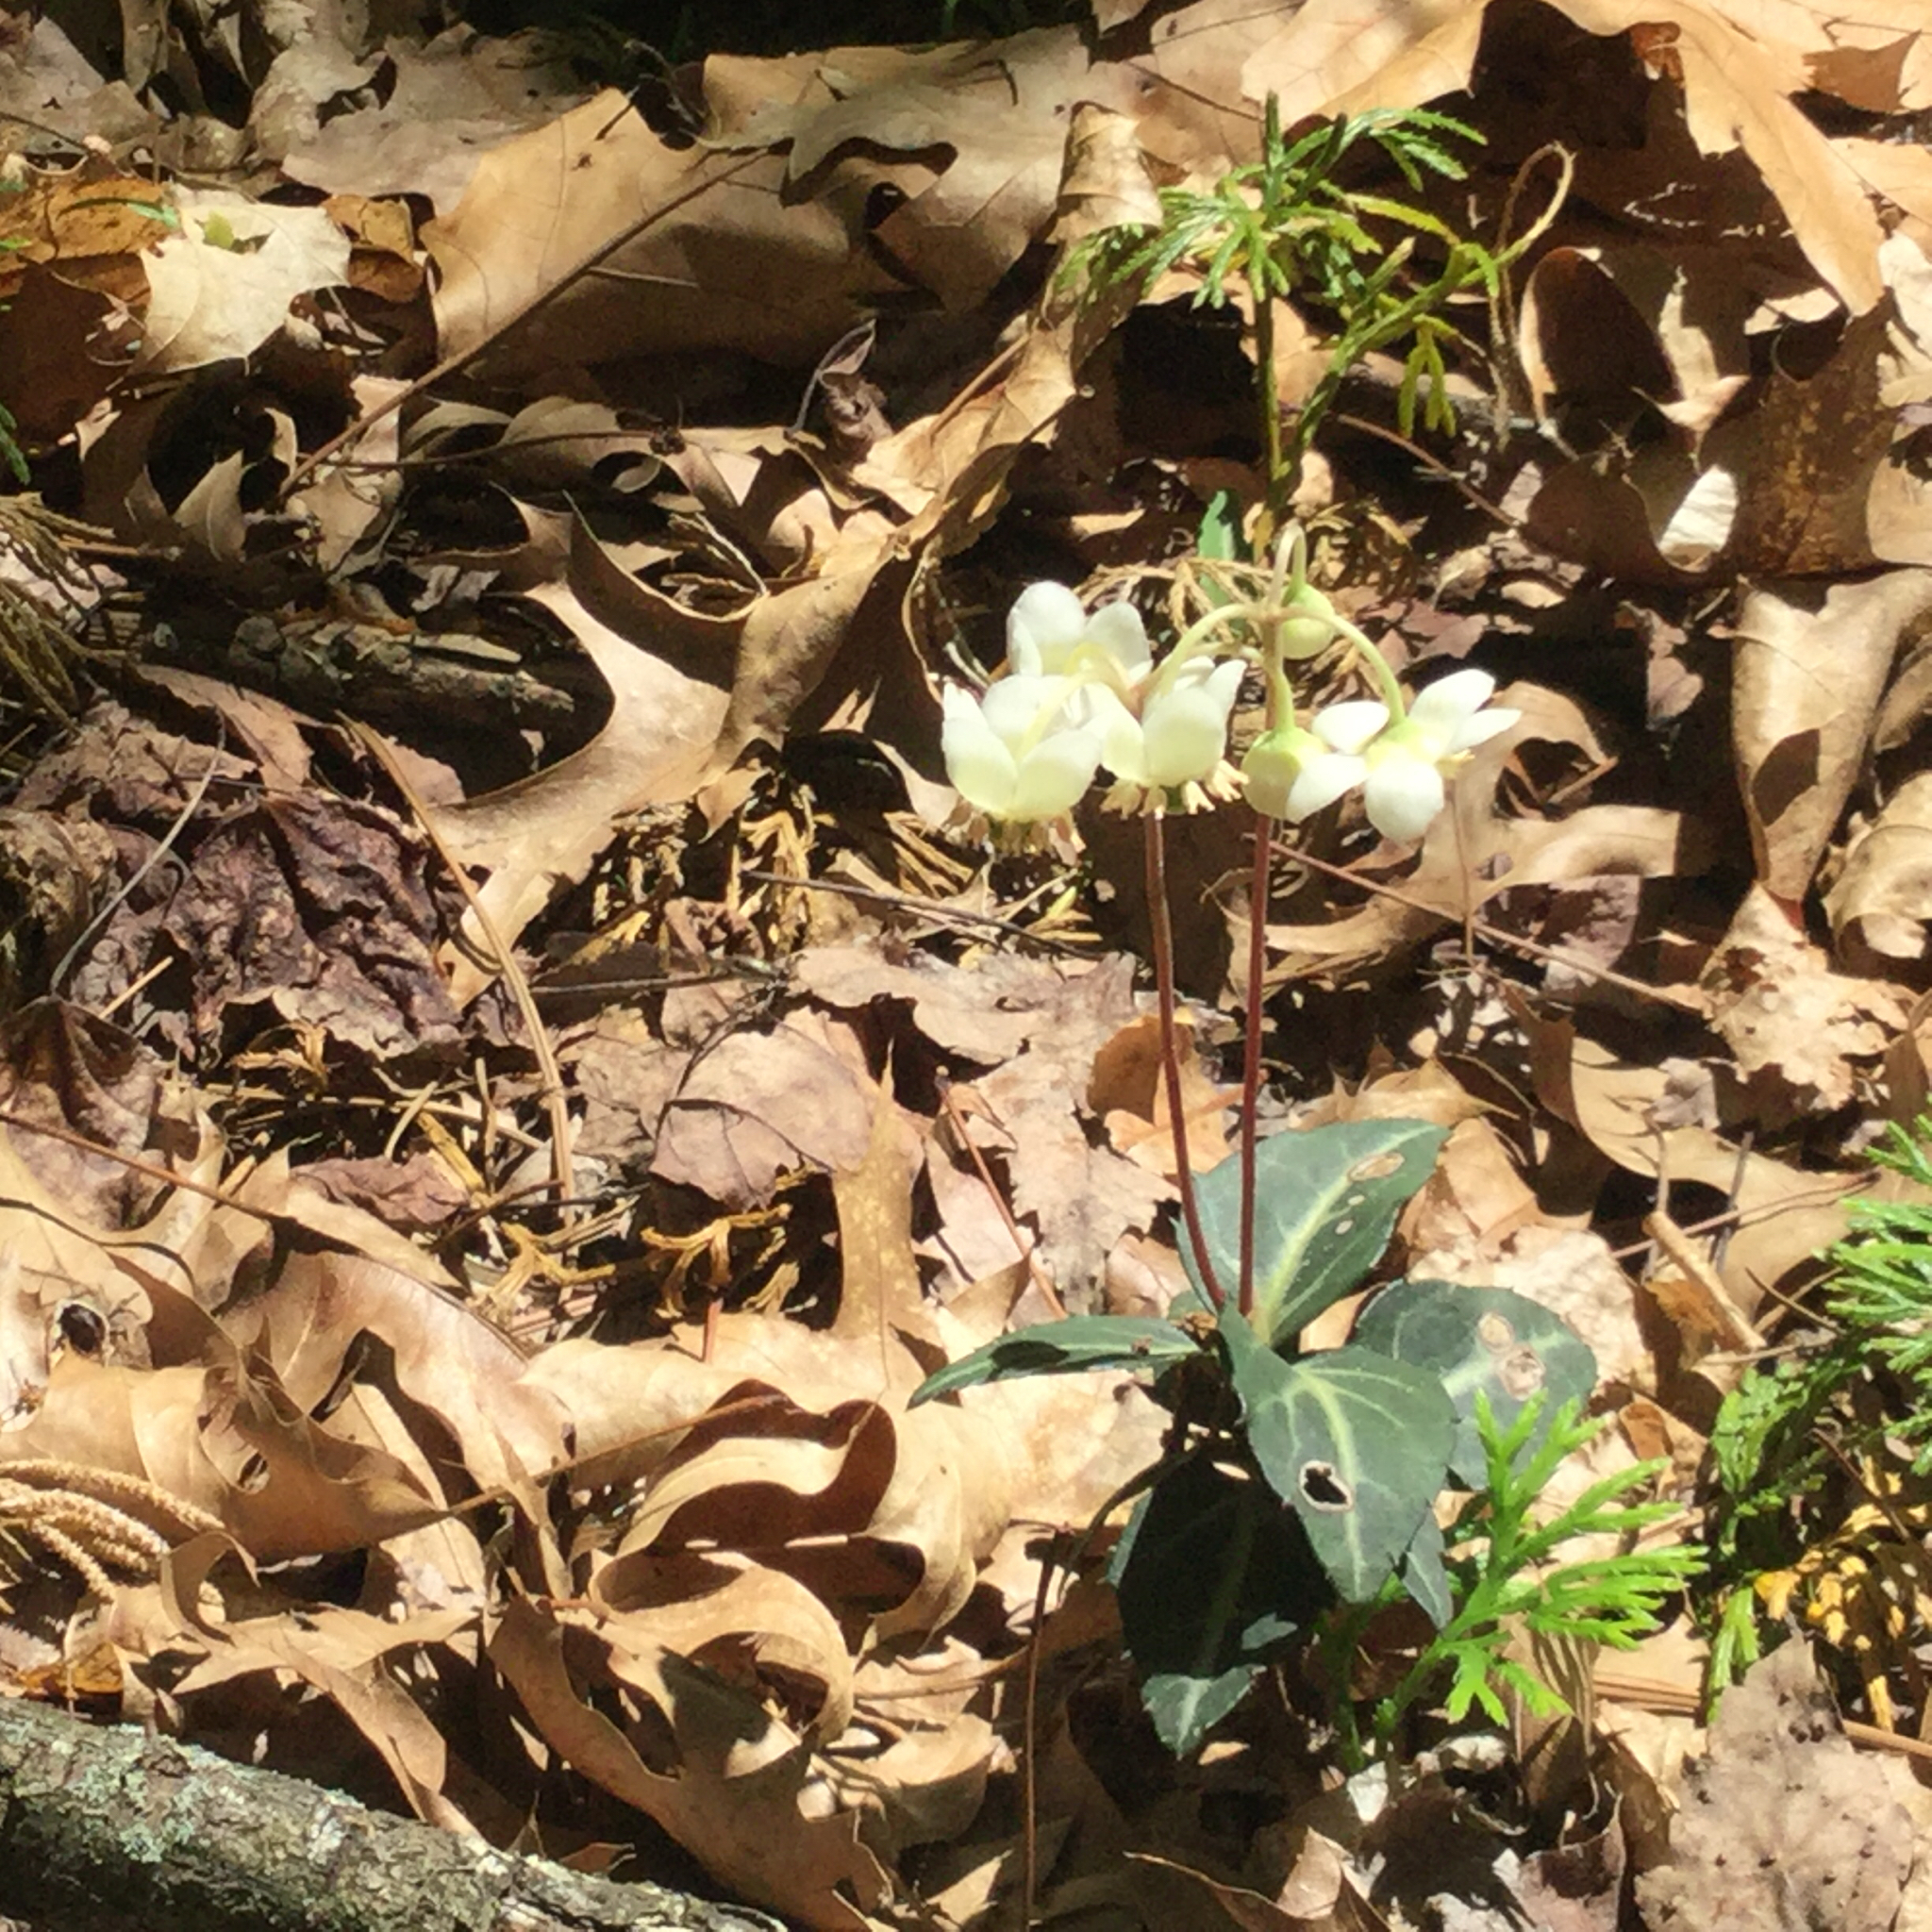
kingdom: Plantae
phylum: Tracheophyta
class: Magnoliopsida
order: Ericales
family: Ericaceae
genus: Chimaphila
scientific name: Chimaphila maculata
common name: Spotted pipsissewa
